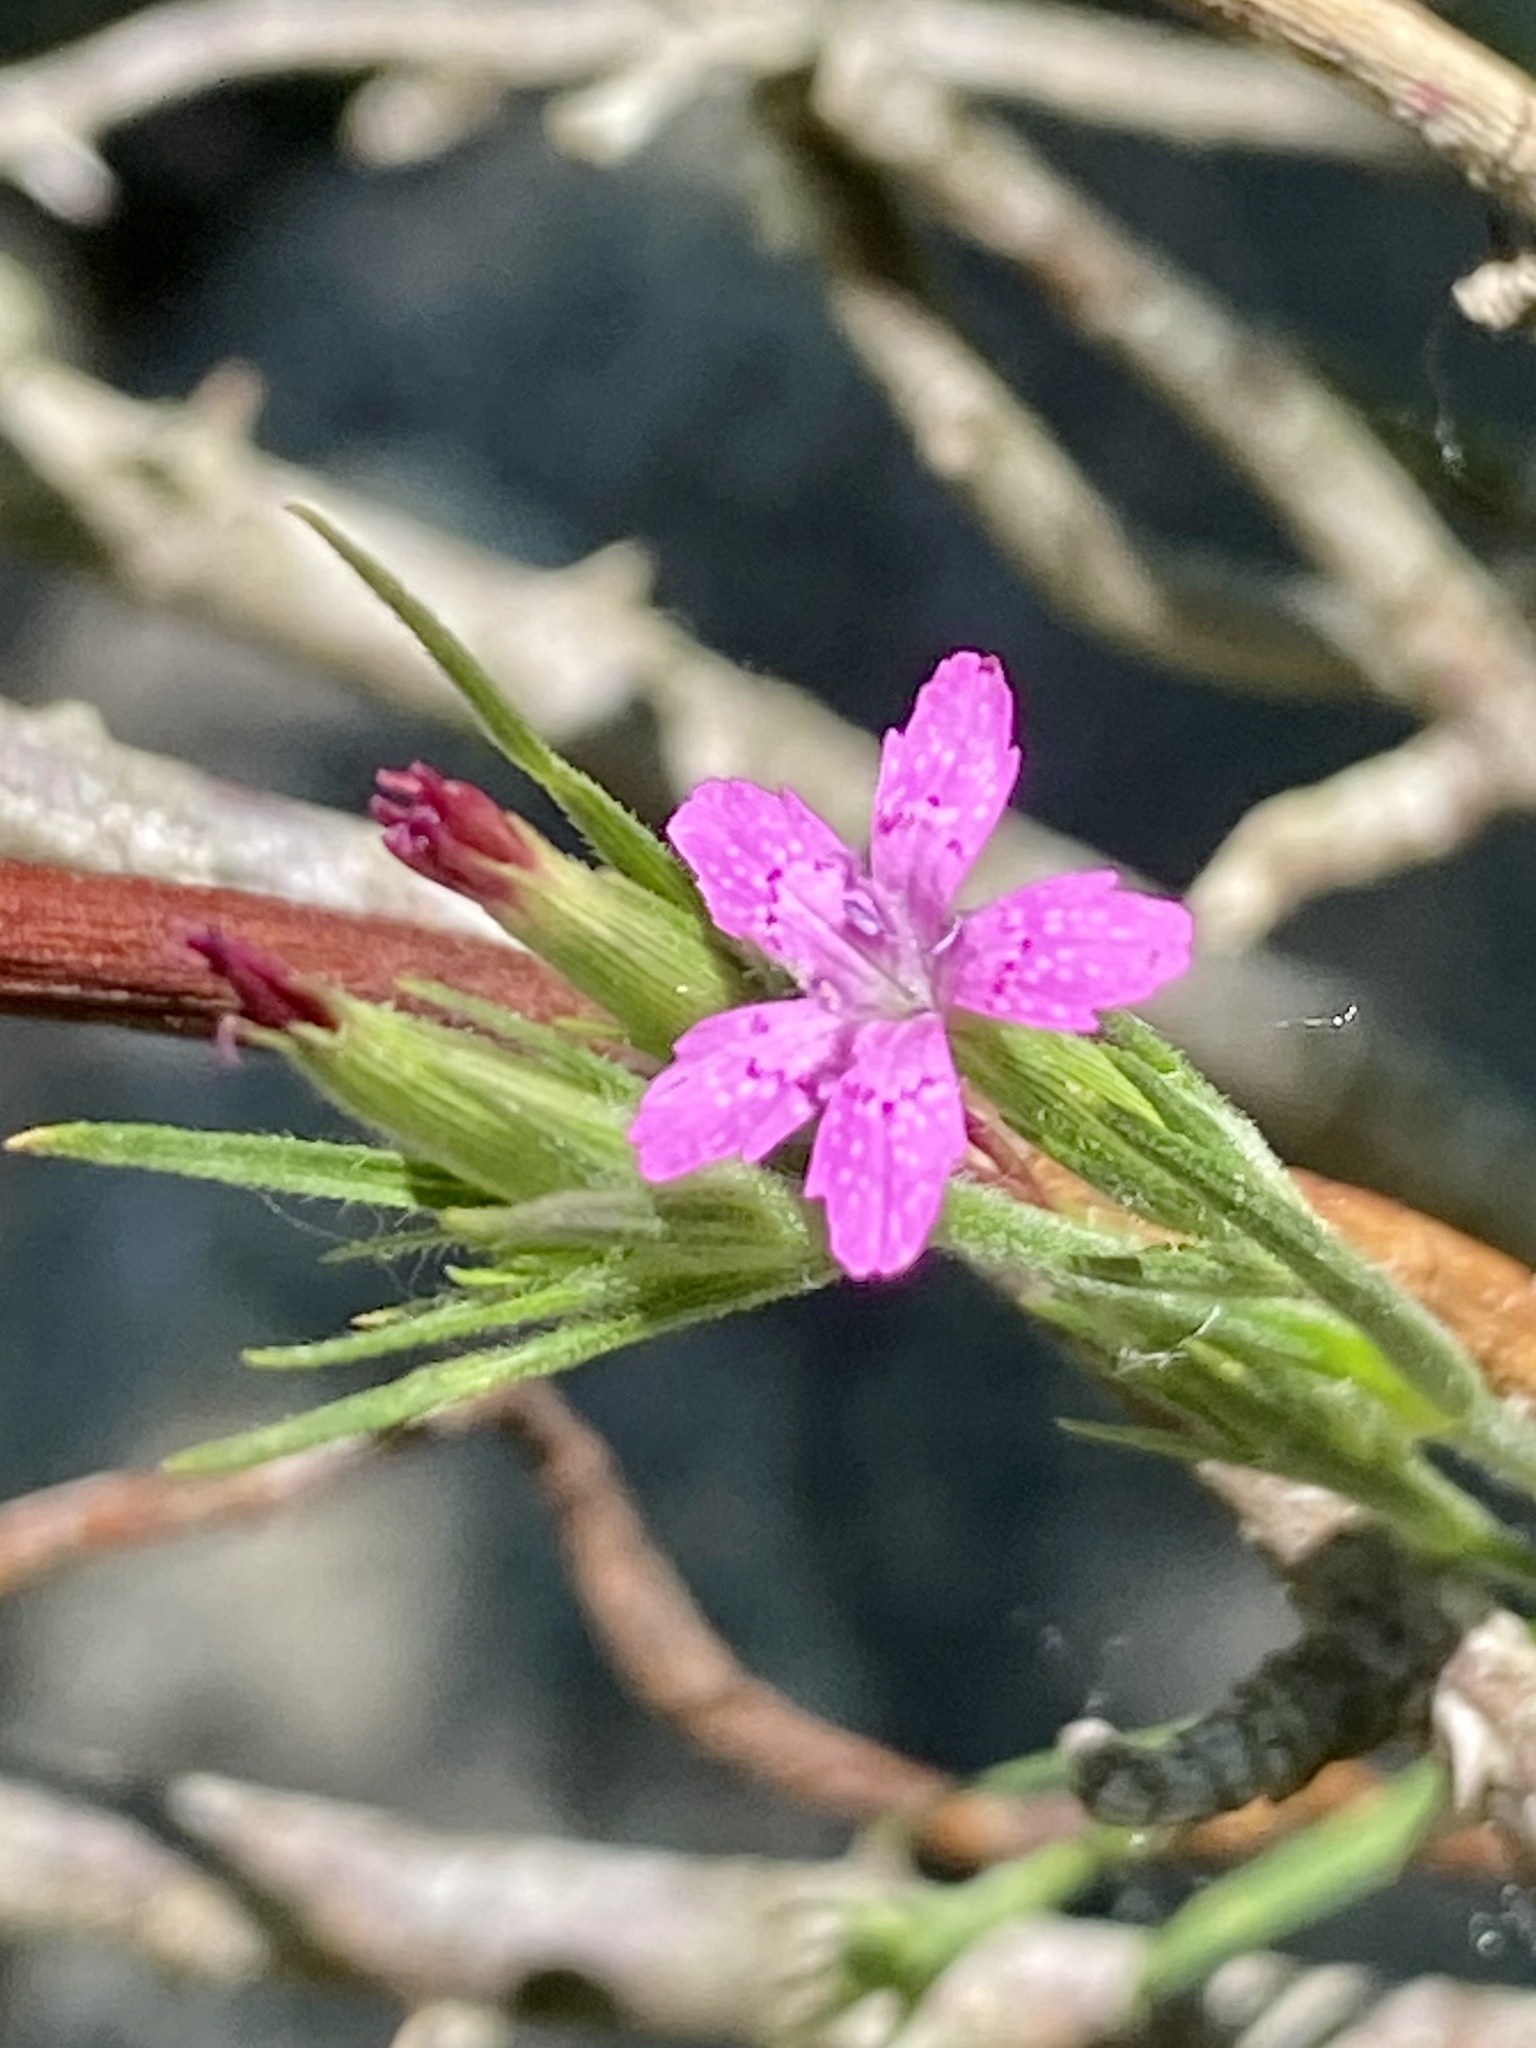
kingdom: Plantae
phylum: Tracheophyta
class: Magnoliopsida
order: Caryophyllales
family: Caryophyllaceae
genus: Dianthus
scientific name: Dianthus armeria
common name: Deptford pink
